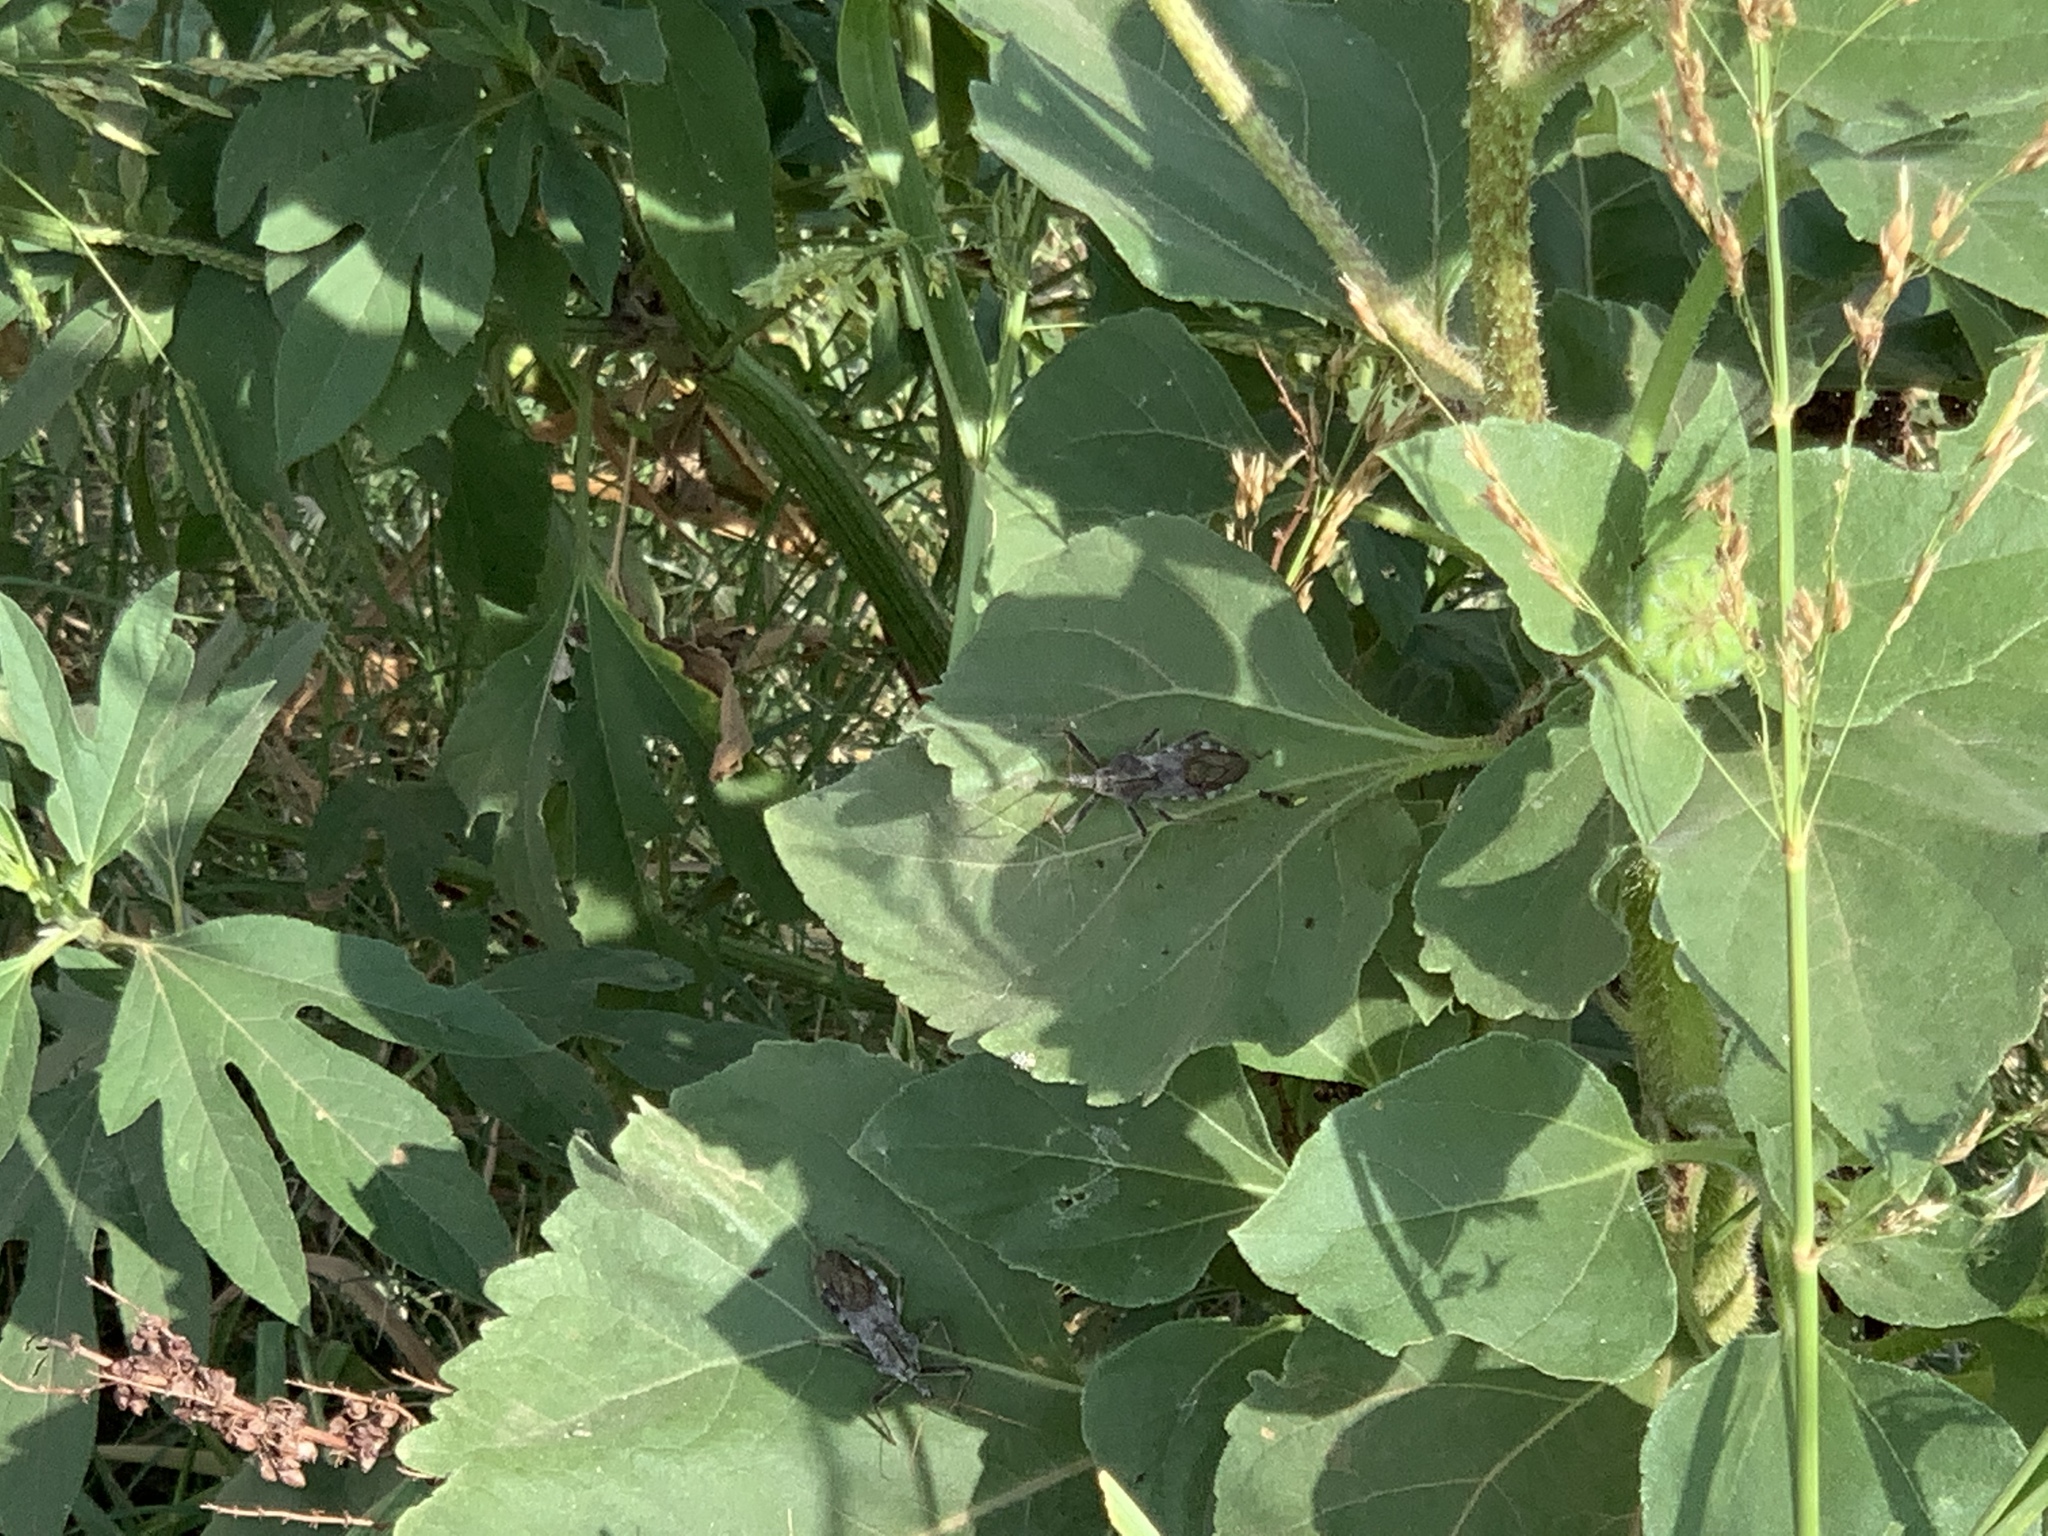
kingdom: Animalia
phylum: Arthropoda
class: Insecta
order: Hemiptera
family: Reduviidae
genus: Arilus
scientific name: Arilus cristatus
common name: North american wheel bug
